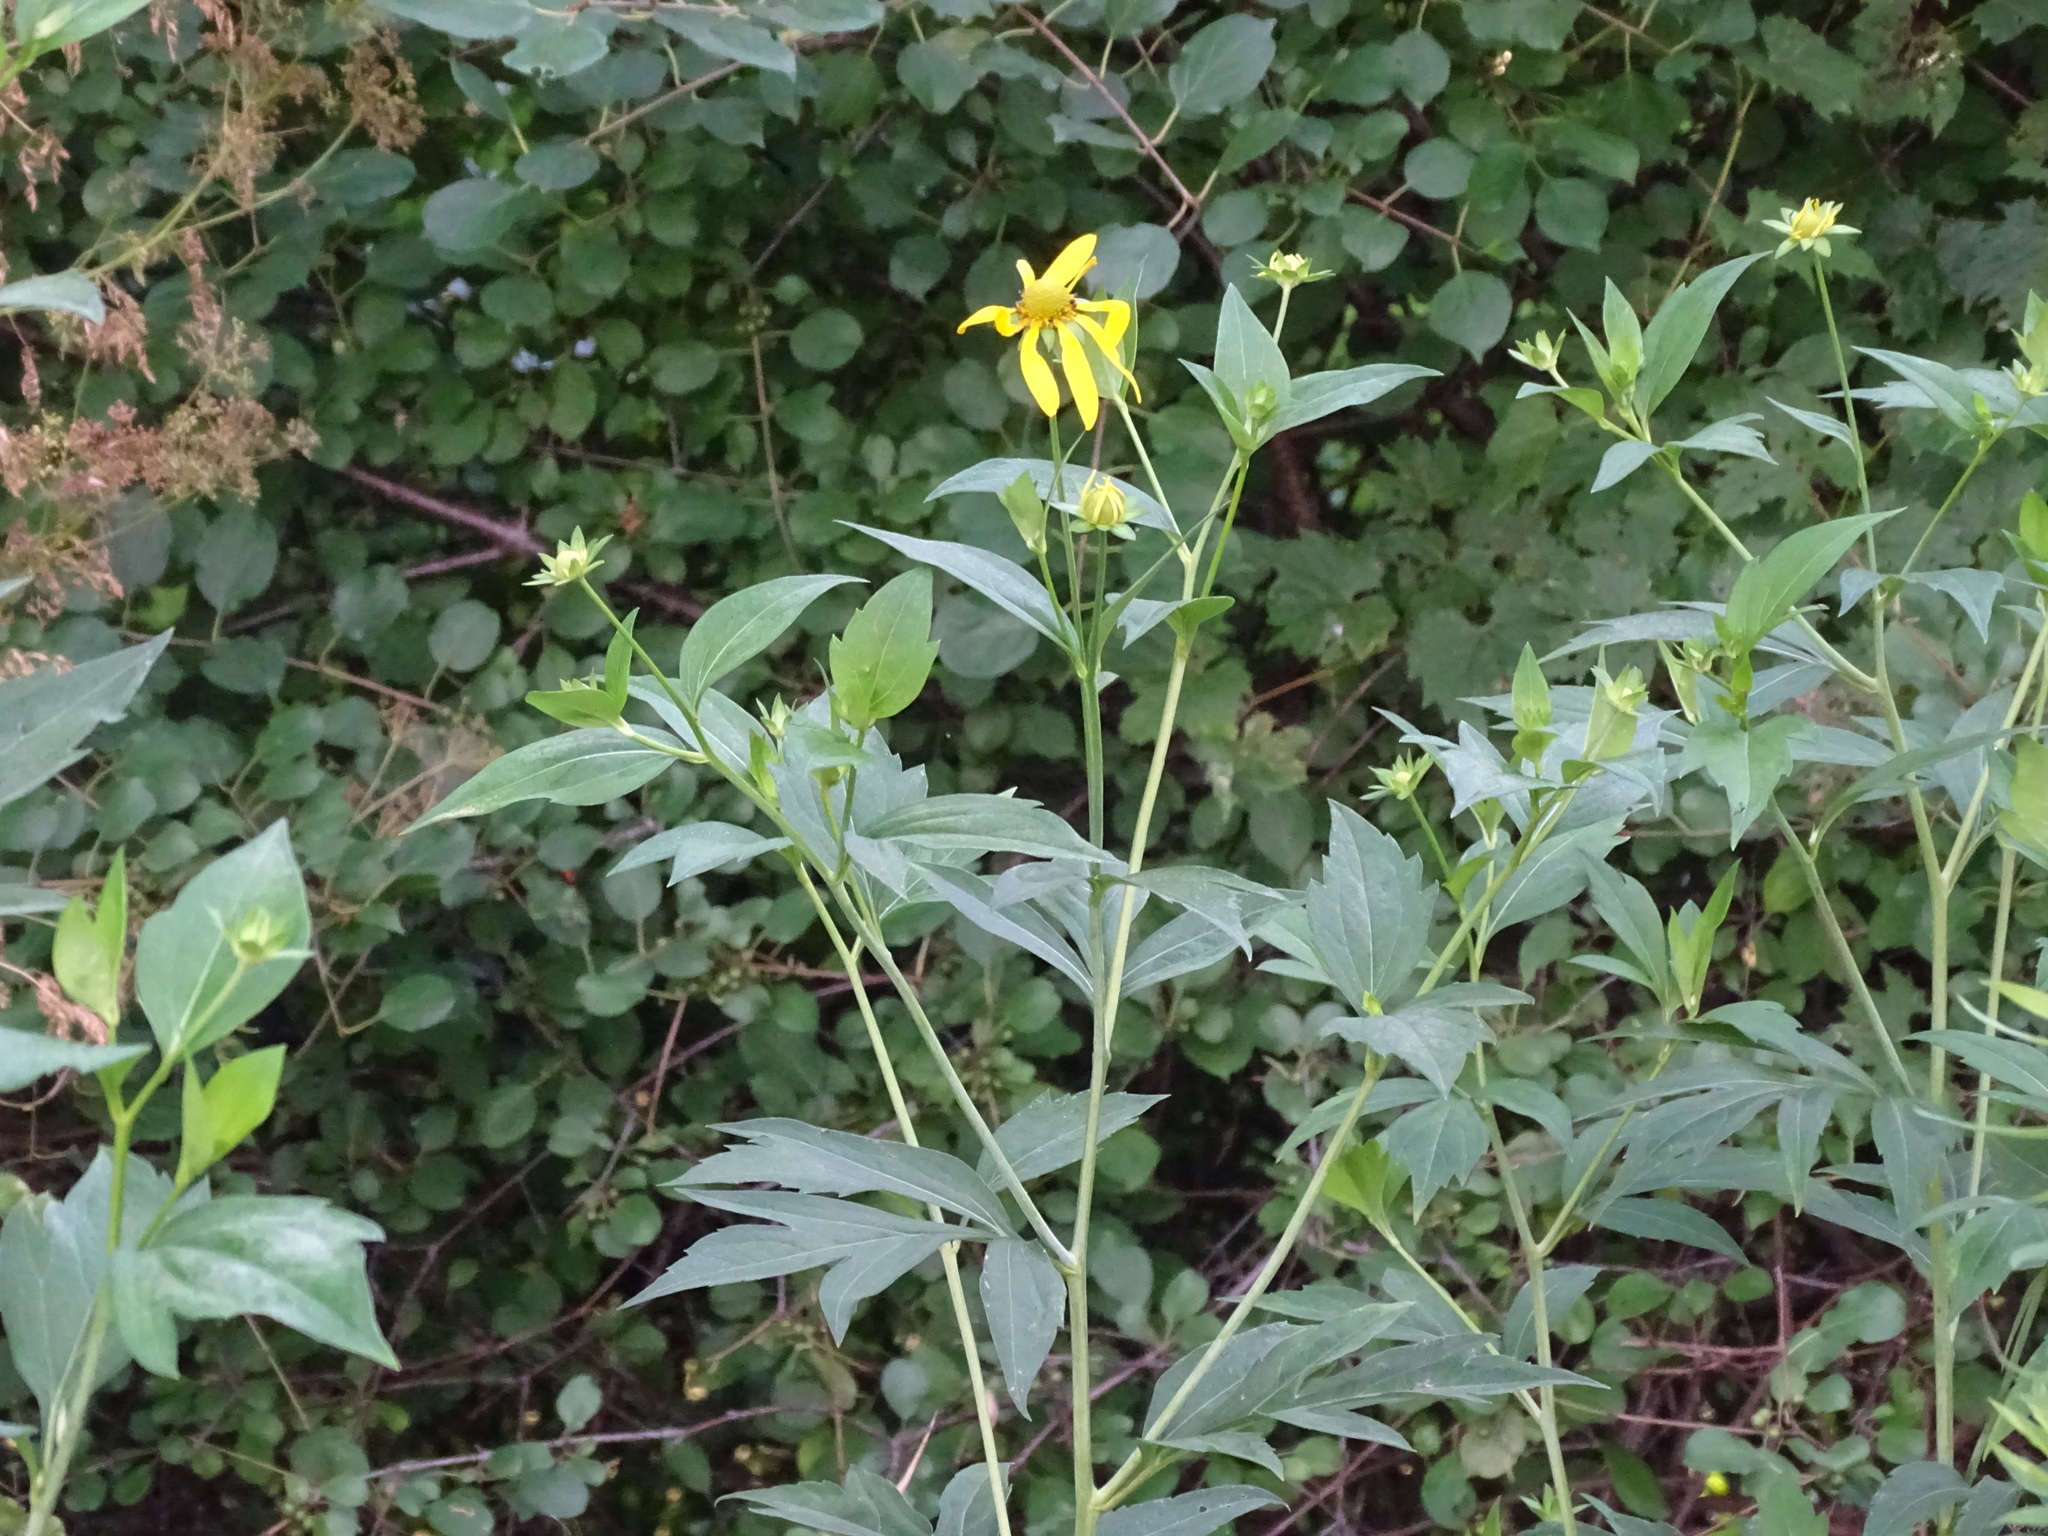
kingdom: Plantae
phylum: Tracheophyta
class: Magnoliopsida
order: Asterales
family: Asteraceae
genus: Rudbeckia
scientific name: Rudbeckia laciniata
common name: Coneflower
